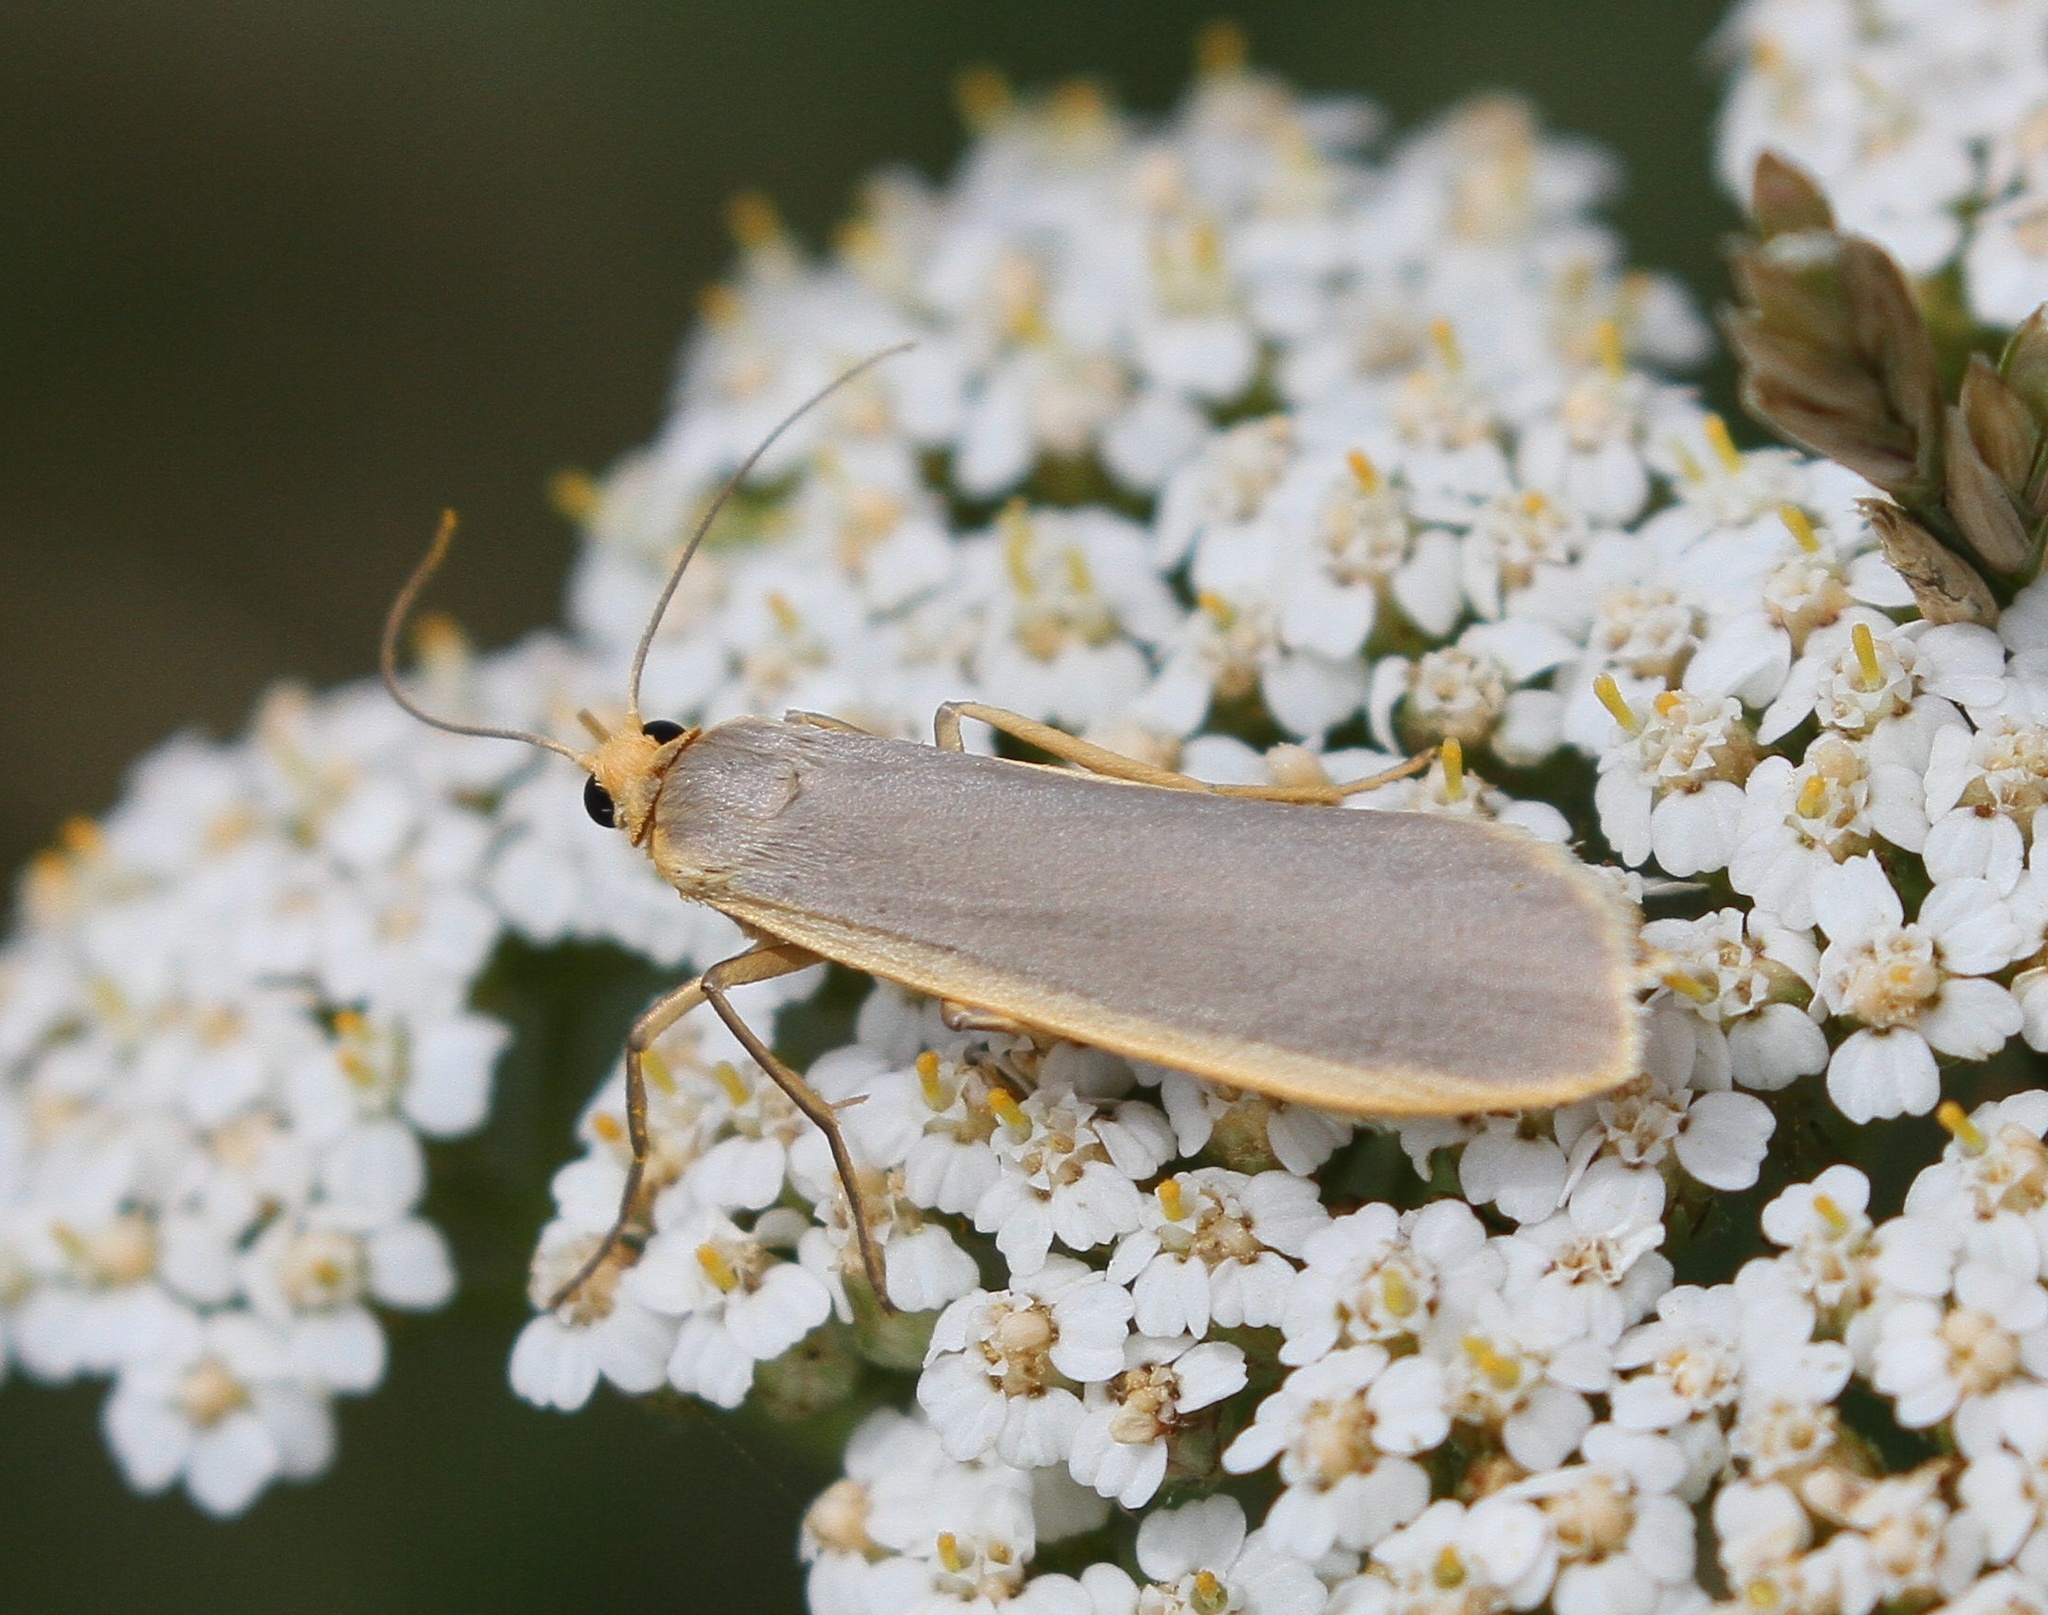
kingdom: Animalia
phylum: Arthropoda
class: Insecta
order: Lepidoptera
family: Erebidae
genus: Nyea
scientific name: Nyea lurideola
